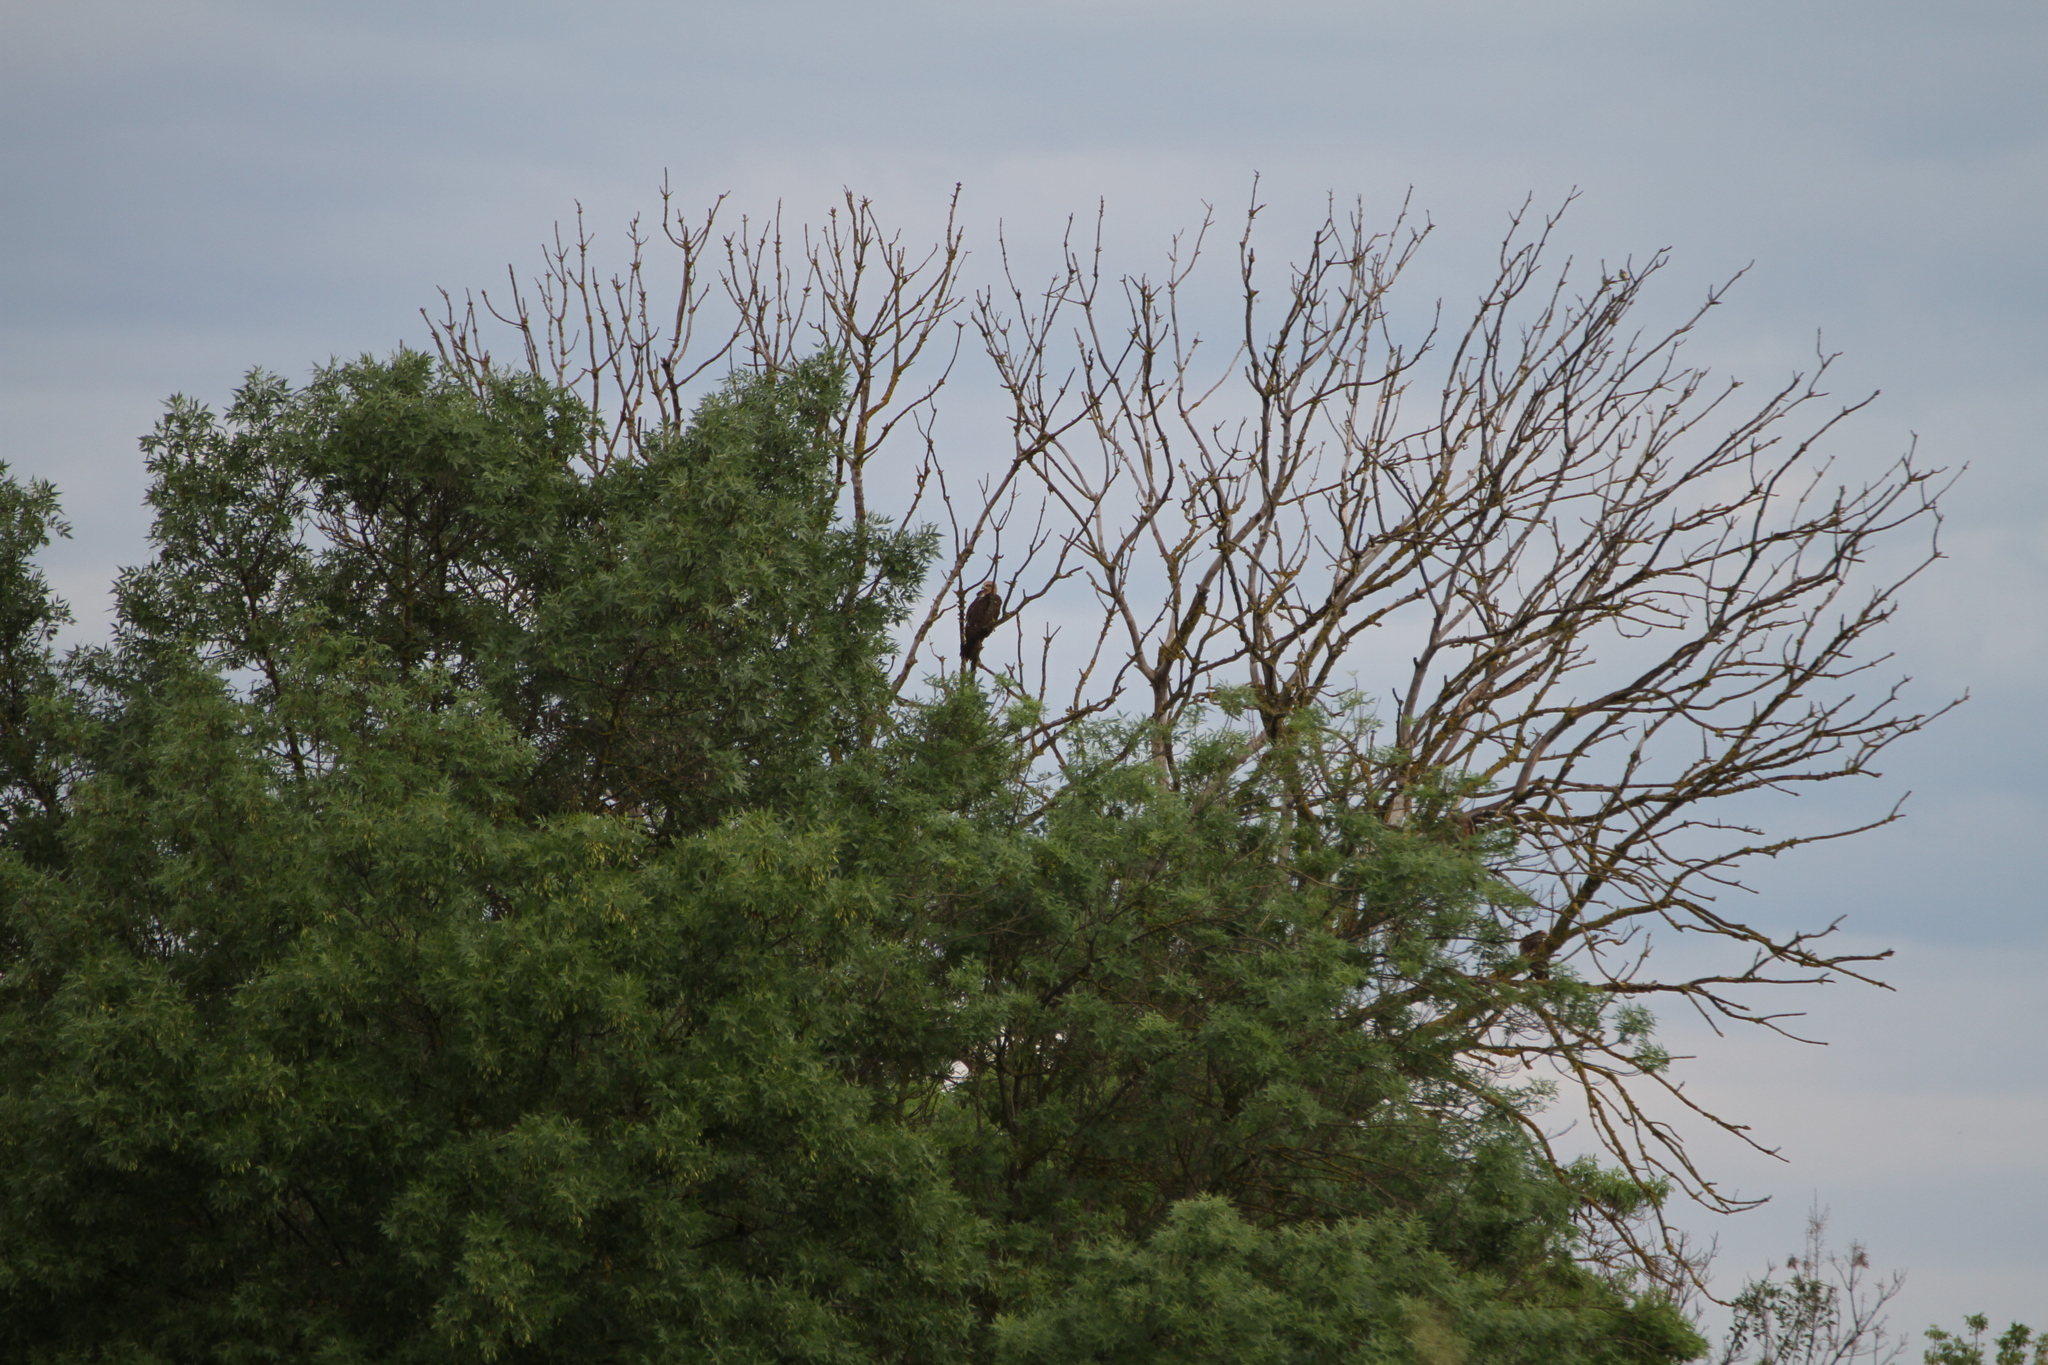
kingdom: Animalia
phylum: Chordata
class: Aves
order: Accipitriformes
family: Accipitridae
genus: Milvus
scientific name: Milvus migrans
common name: Black kite
